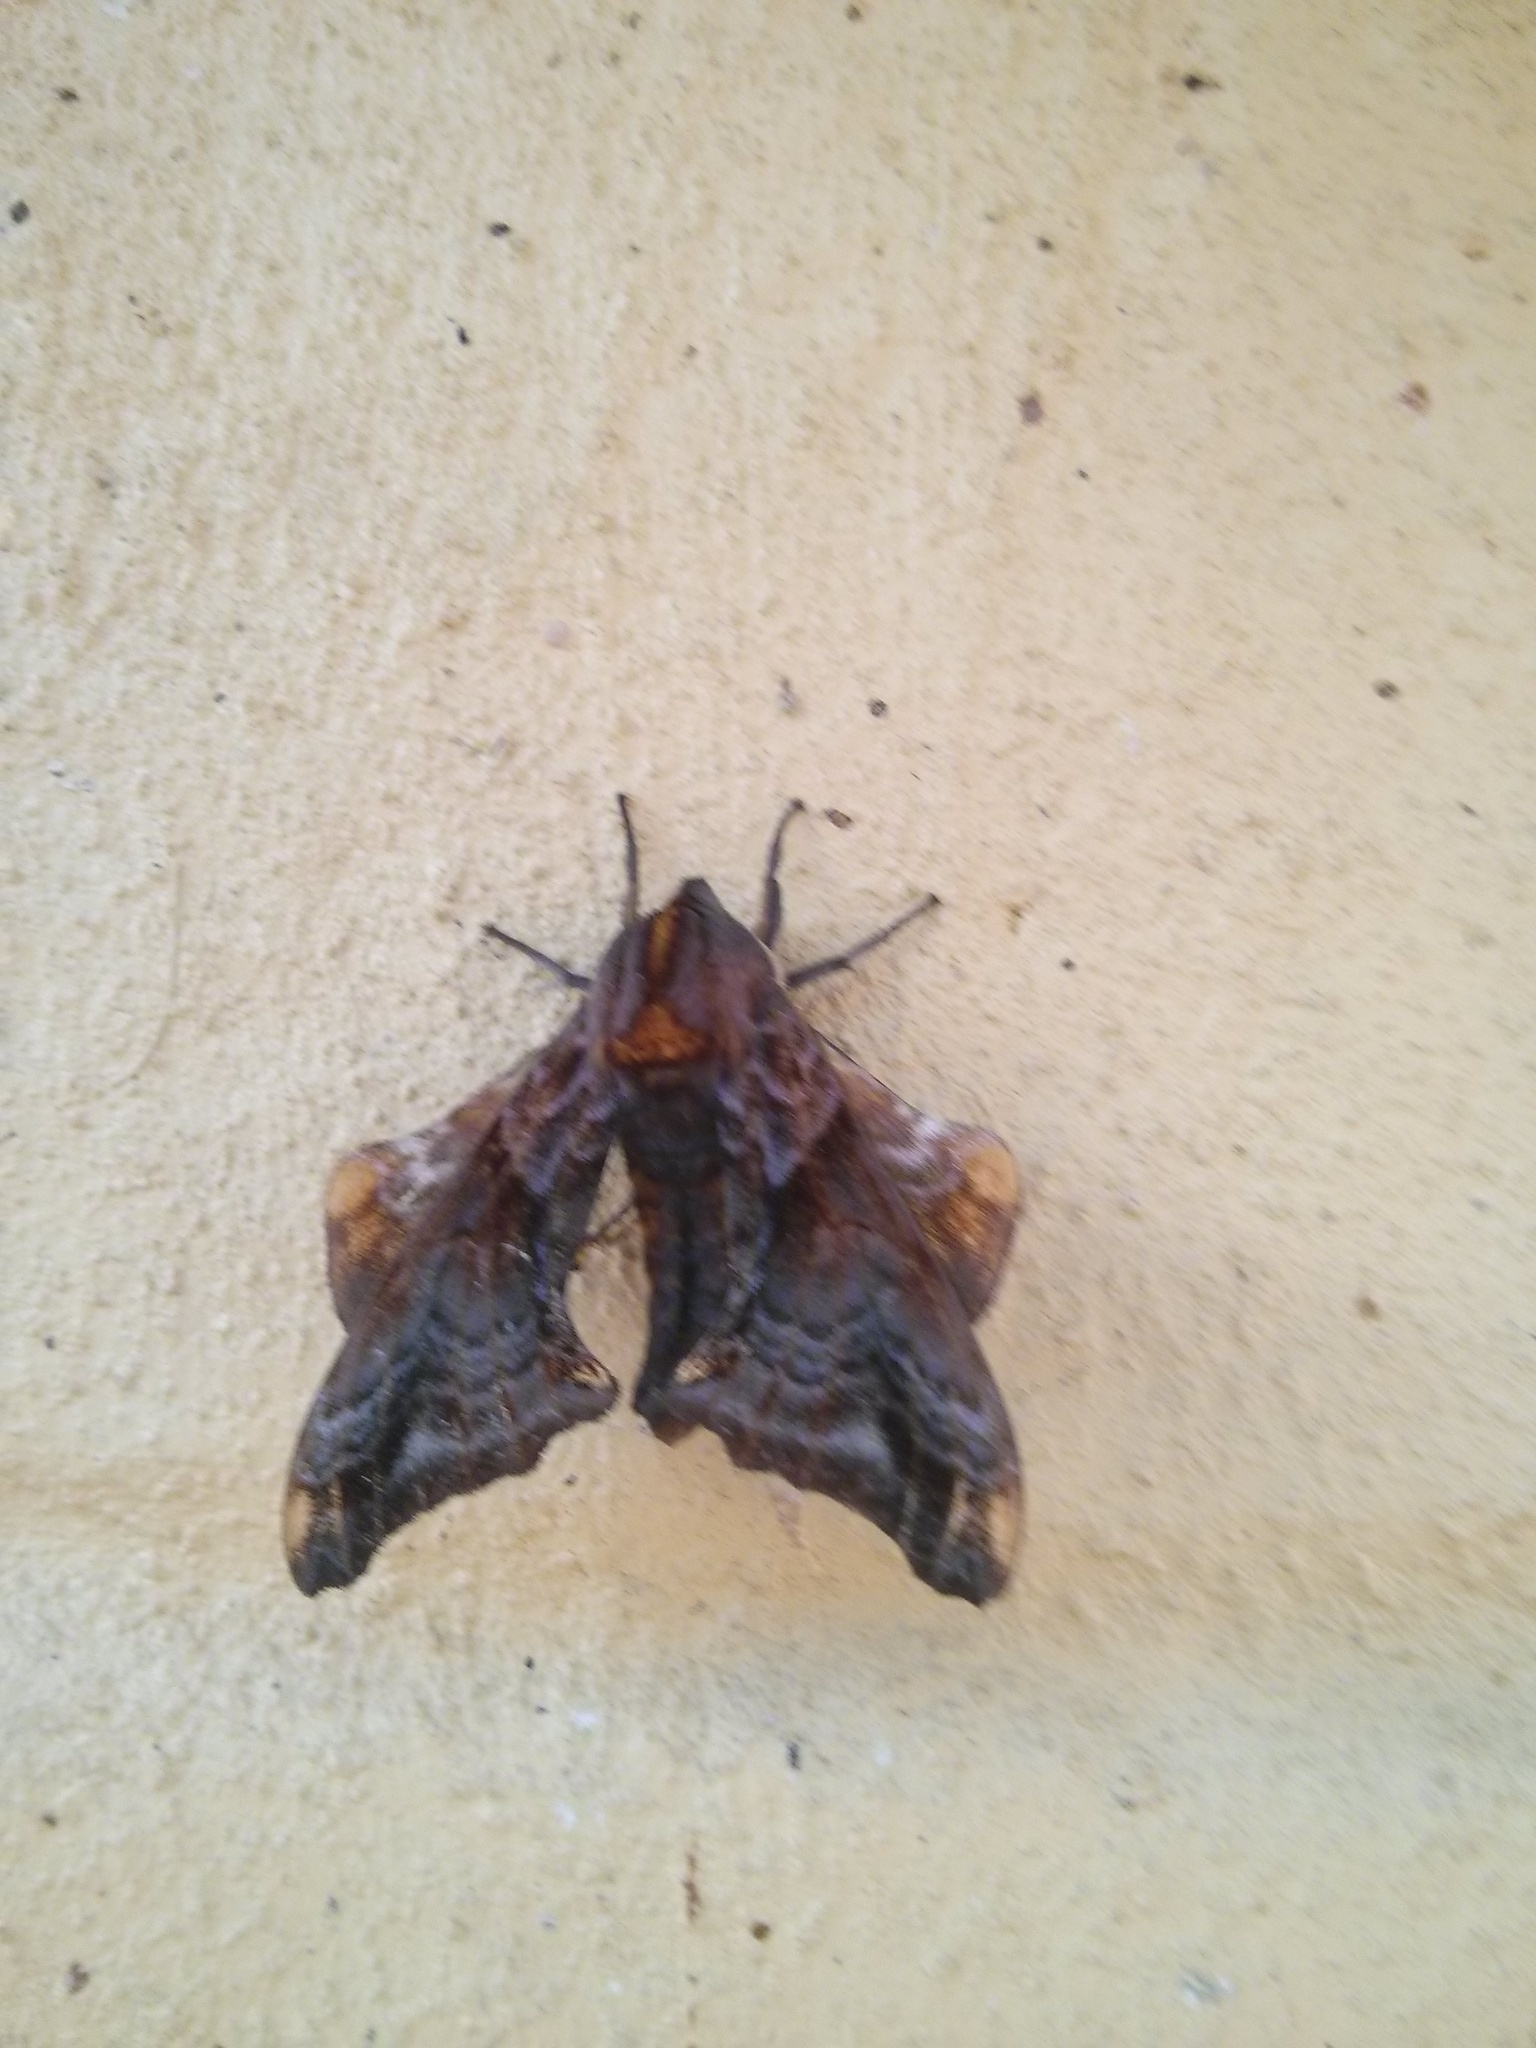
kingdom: Animalia
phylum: Arthropoda
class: Insecta
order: Lepidoptera
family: Sphingidae
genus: Paonias
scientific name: Paonias myops
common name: Small-eyed sphinx
